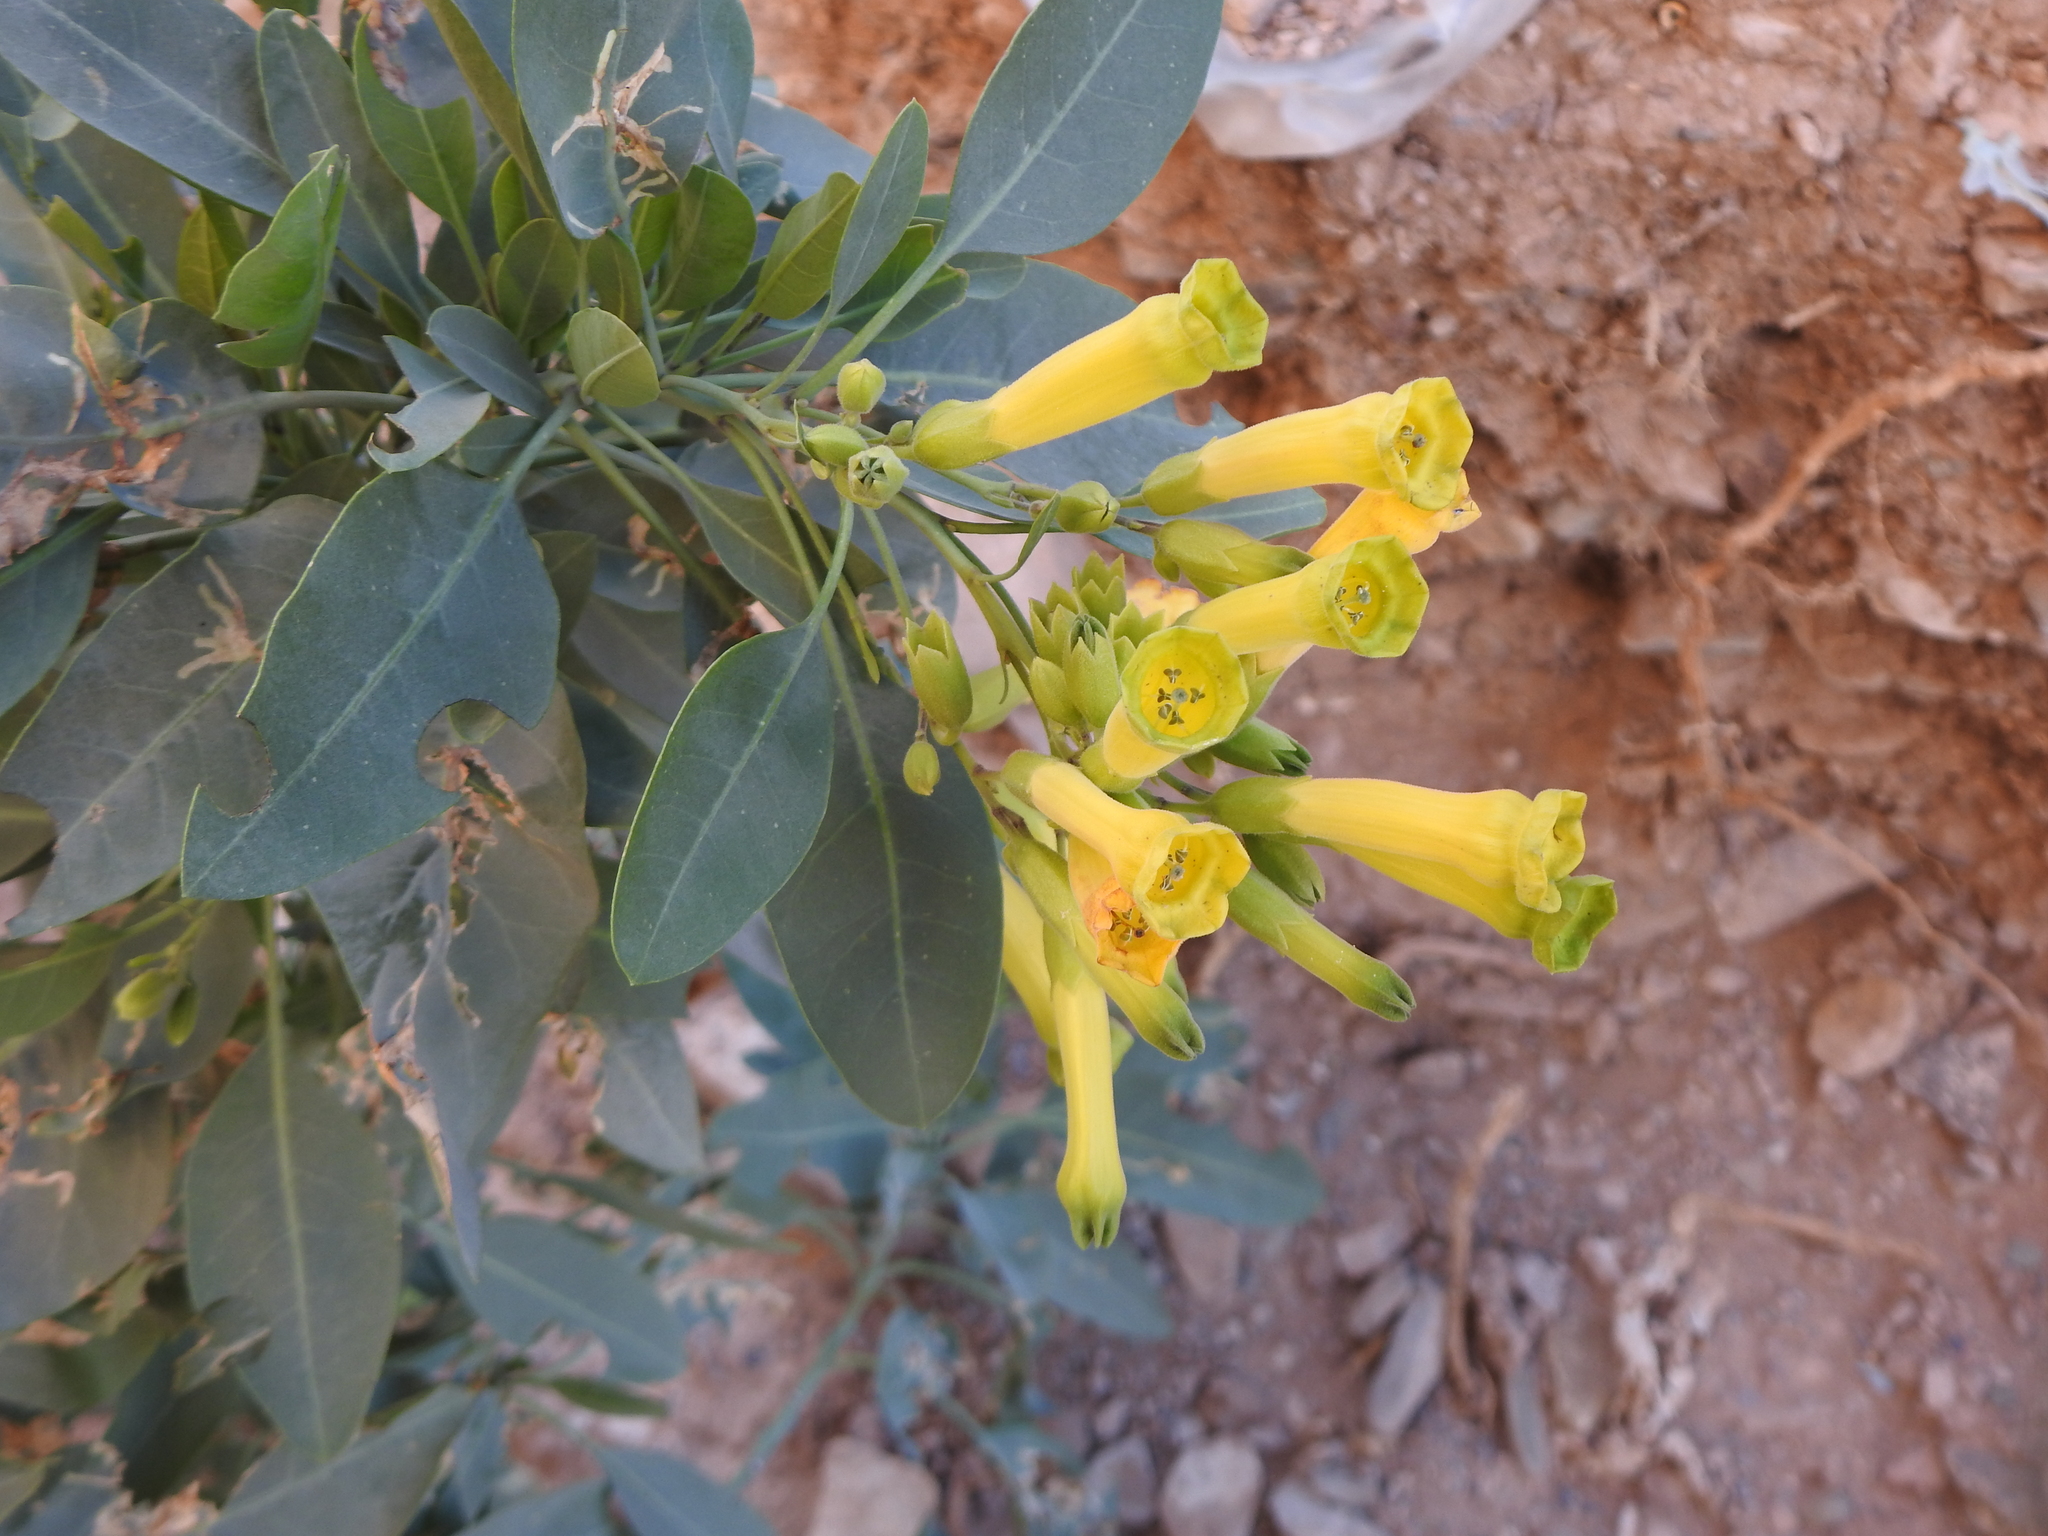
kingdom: Plantae
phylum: Tracheophyta
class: Magnoliopsida
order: Solanales
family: Solanaceae
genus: Nicotiana
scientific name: Nicotiana glauca
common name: Tree tobacco
